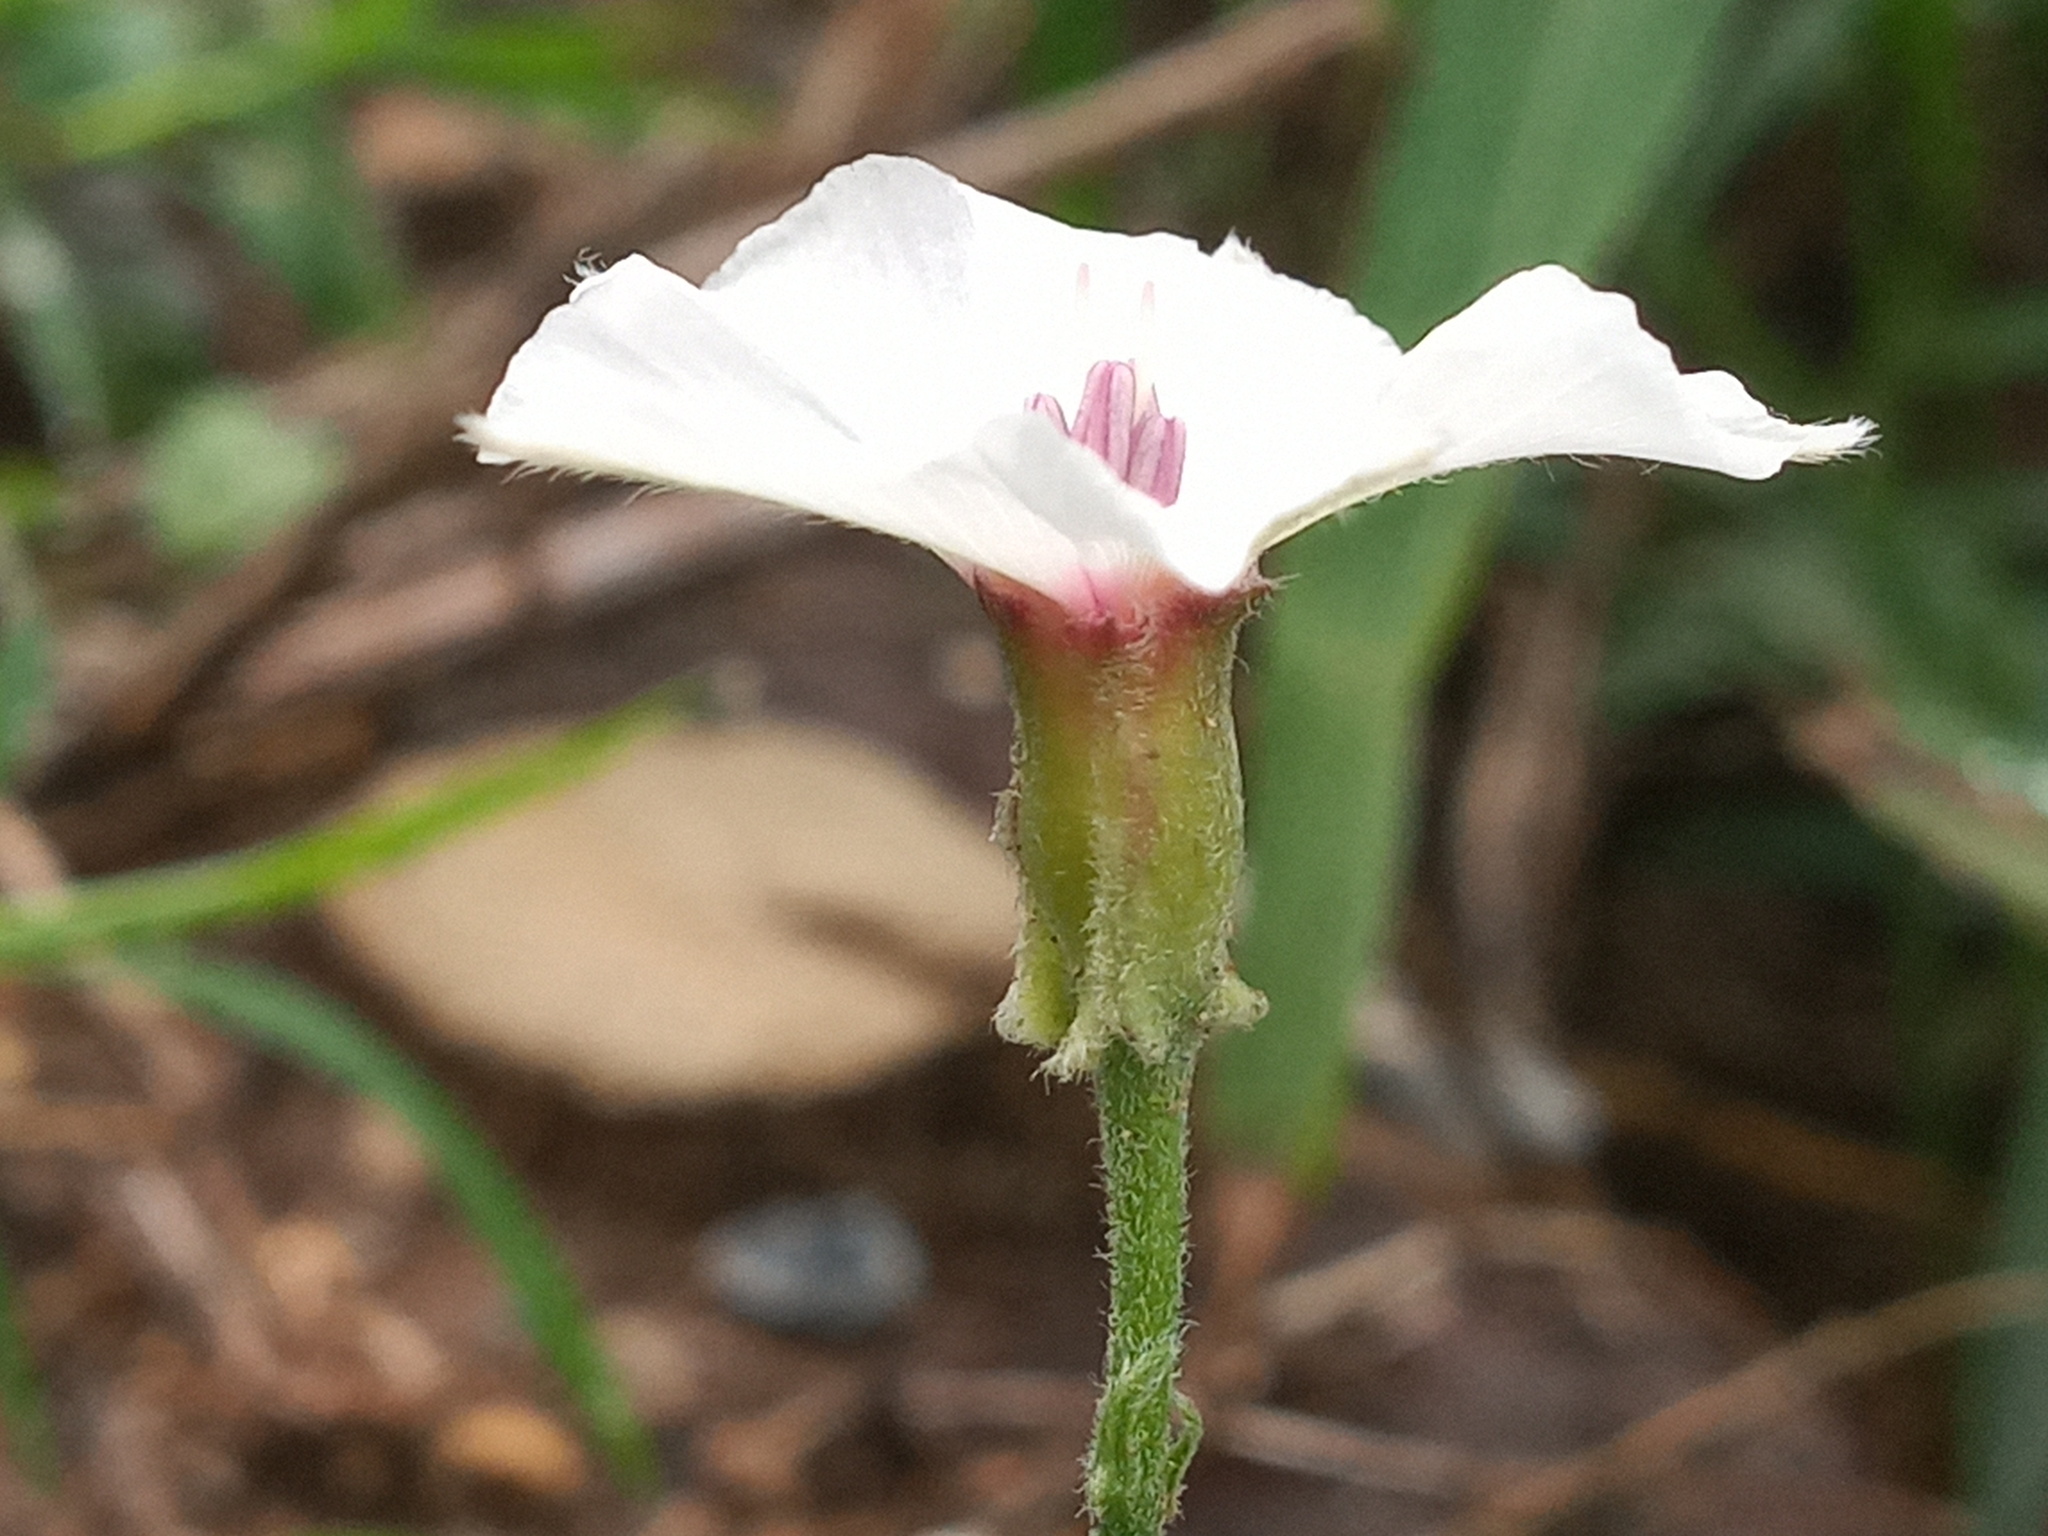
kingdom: Plantae
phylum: Tracheophyta
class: Magnoliopsida
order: Solanales
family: Convolvulaceae
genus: Convolvulus
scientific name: Convolvulus equitans
